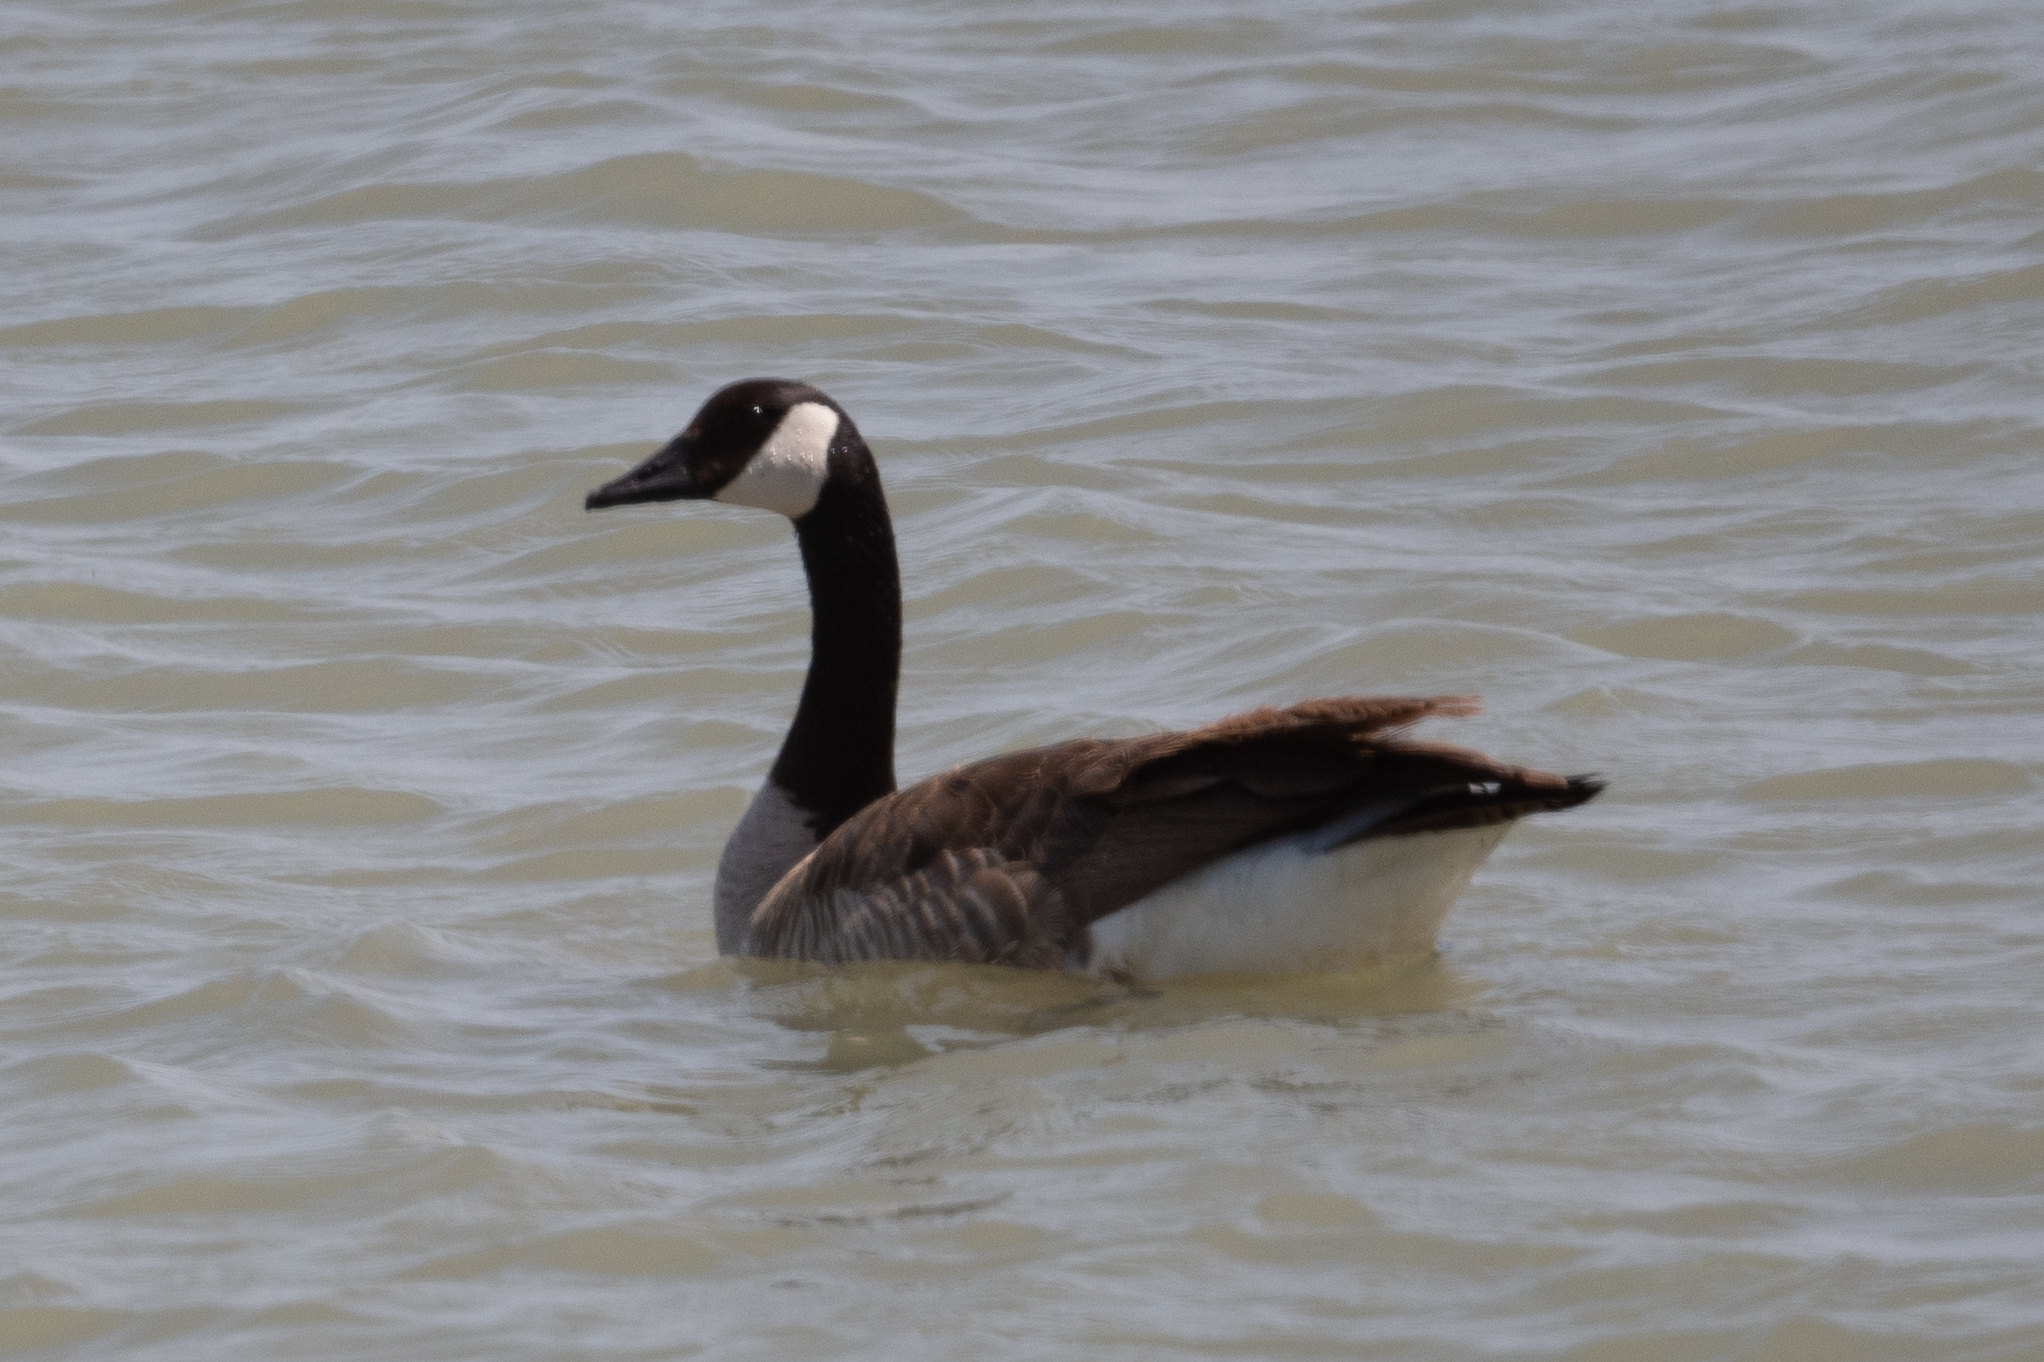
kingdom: Animalia
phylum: Chordata
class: Aves
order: Anseriformes
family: Anatidae
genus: Branta
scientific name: Branta canadensis
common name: Canada goose
